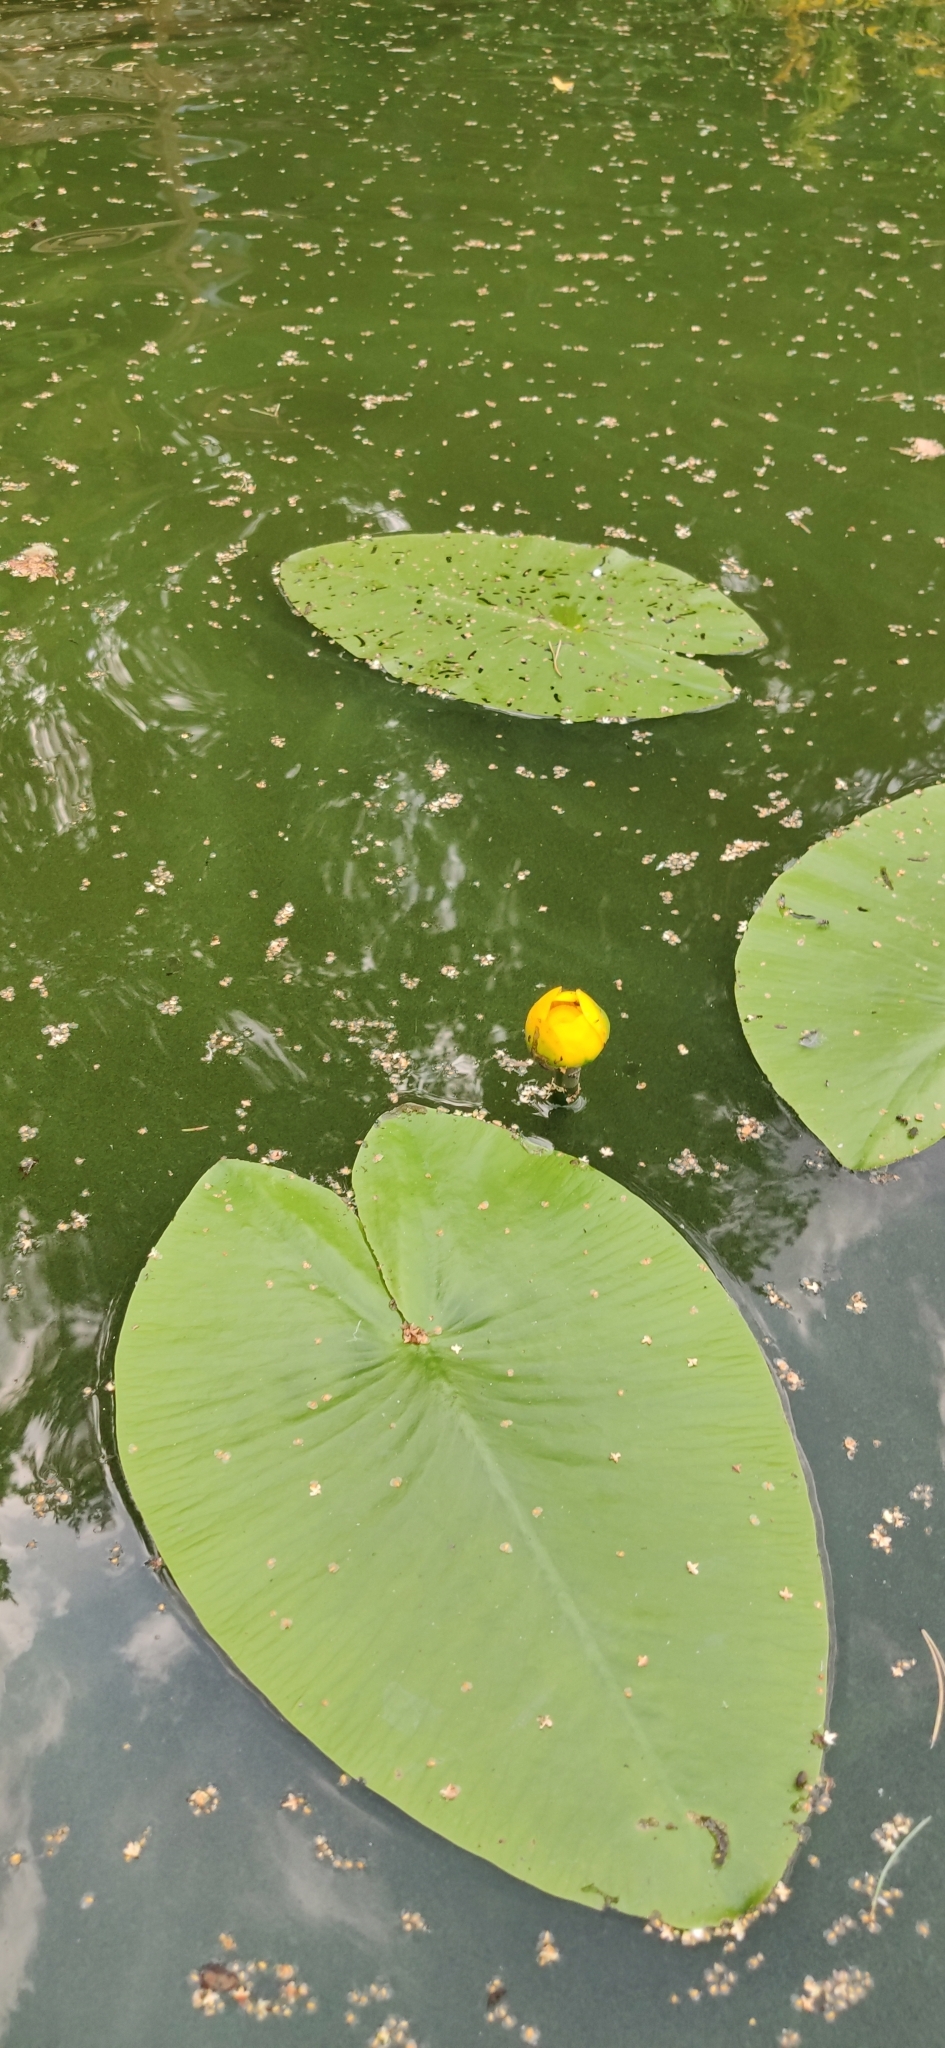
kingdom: Plantae
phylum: Tracheophyta
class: Magnoliopsida
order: Nymphaeales
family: Nymphaeaceae
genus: Nuphar
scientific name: Nuphar lutea
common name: Yellow water-lily
